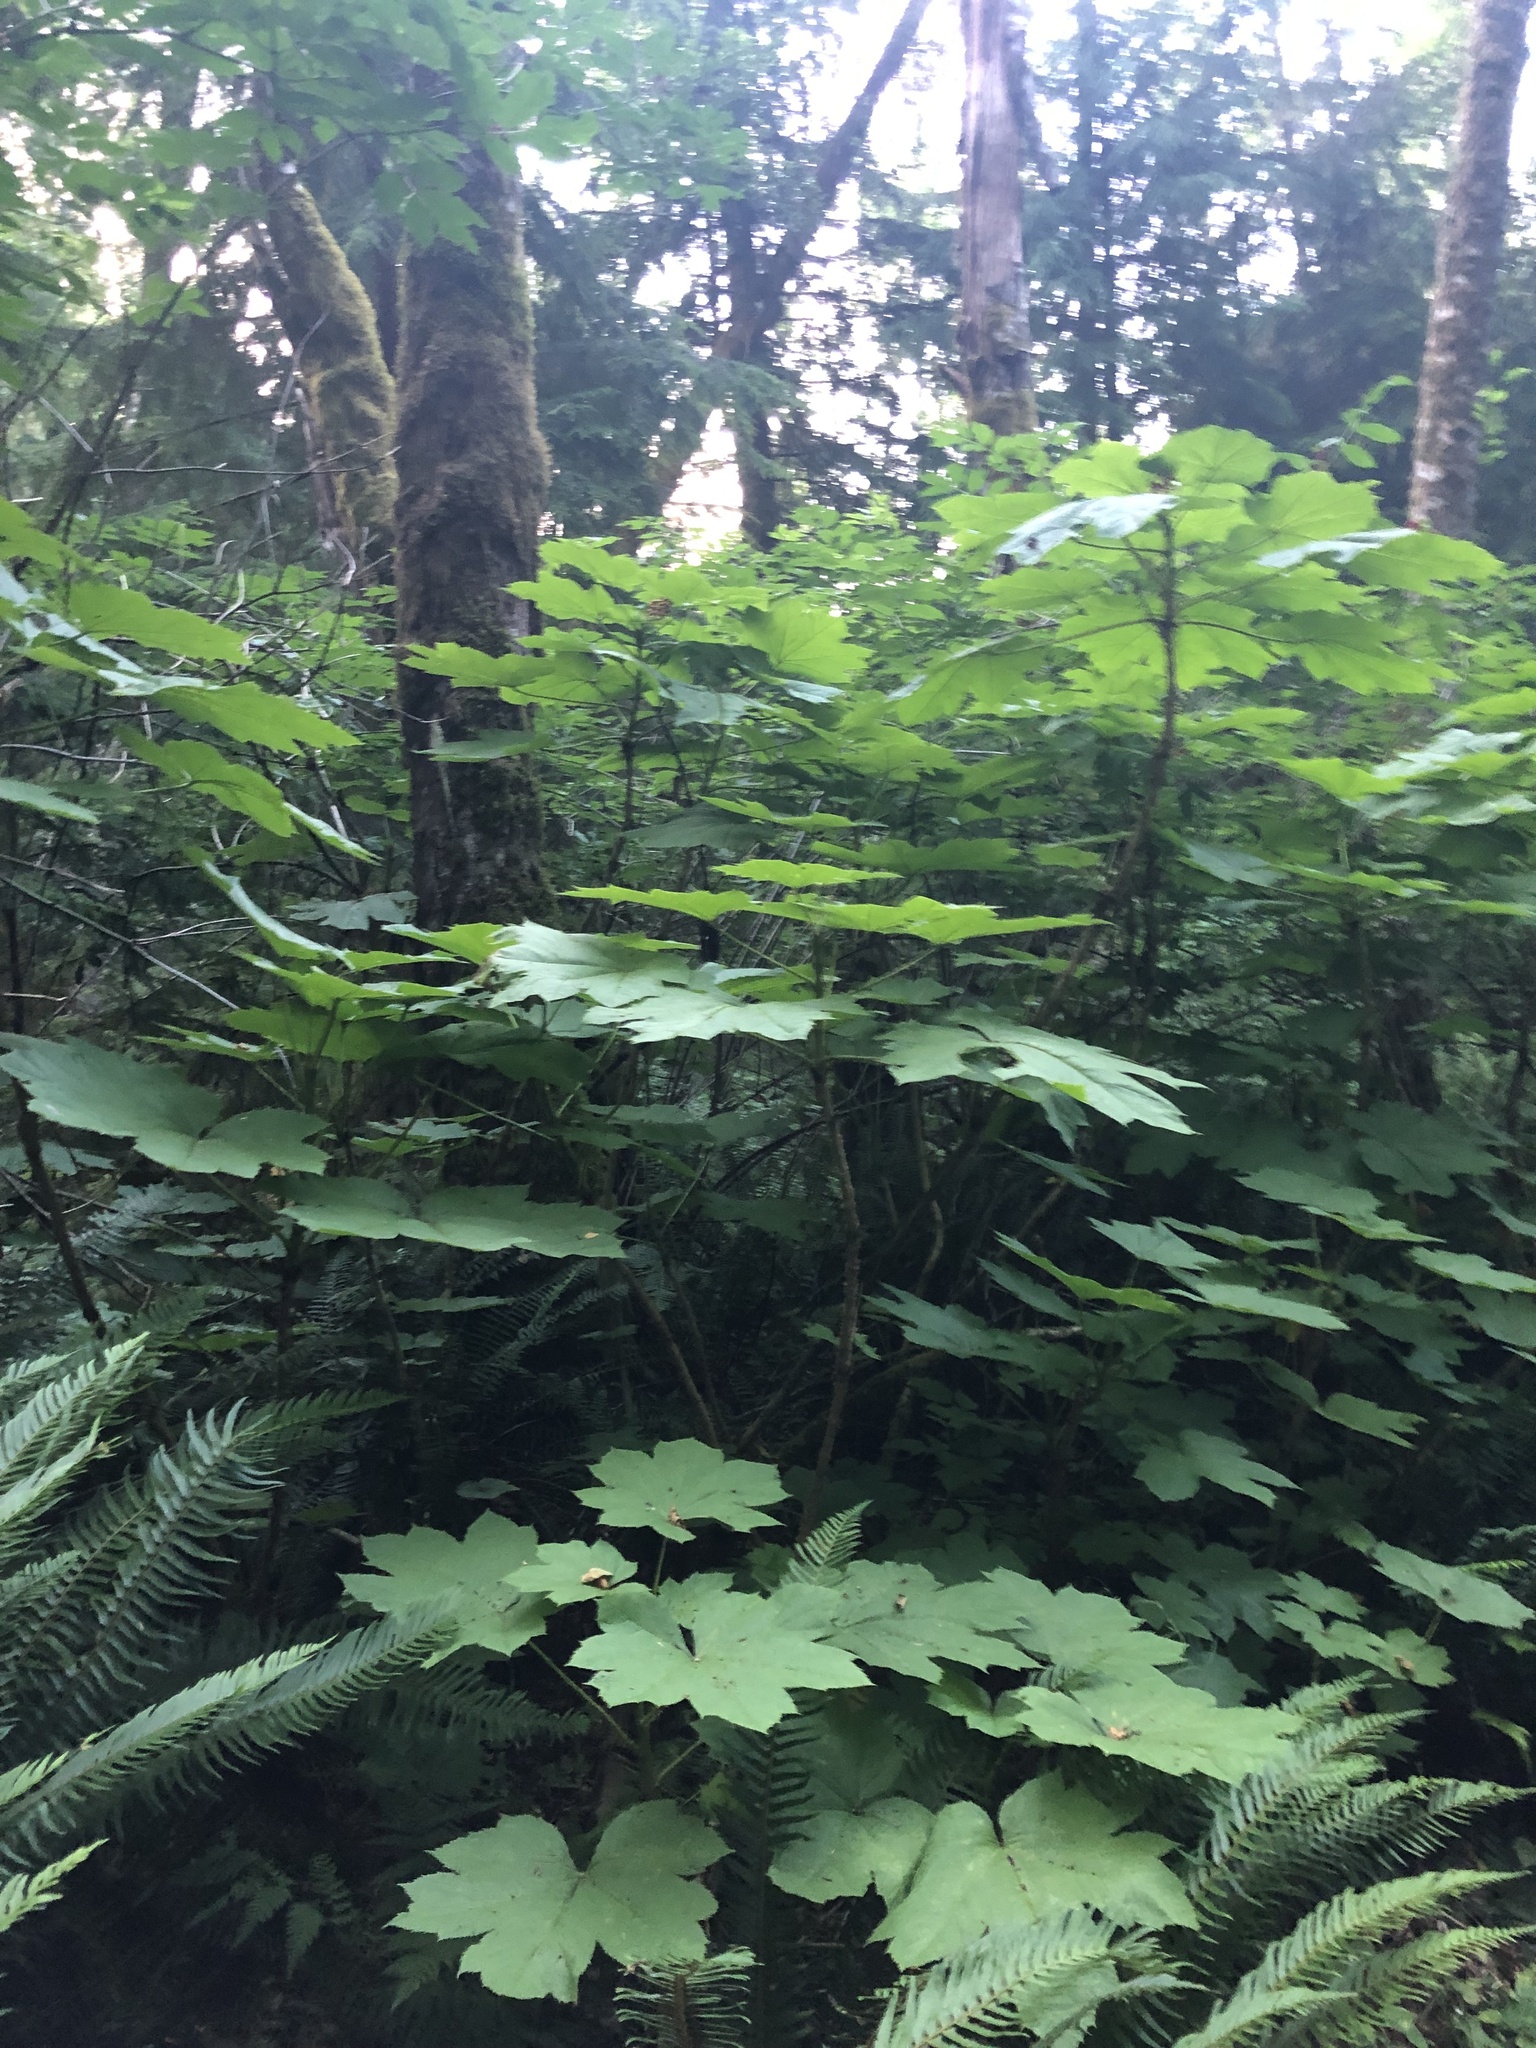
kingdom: Plantae
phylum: Tracheophyta
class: Magnoliopsida
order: Apiales
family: Araliaceae
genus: Oplopanax
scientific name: Oplopanax horridus
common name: Devil's walking-stick
